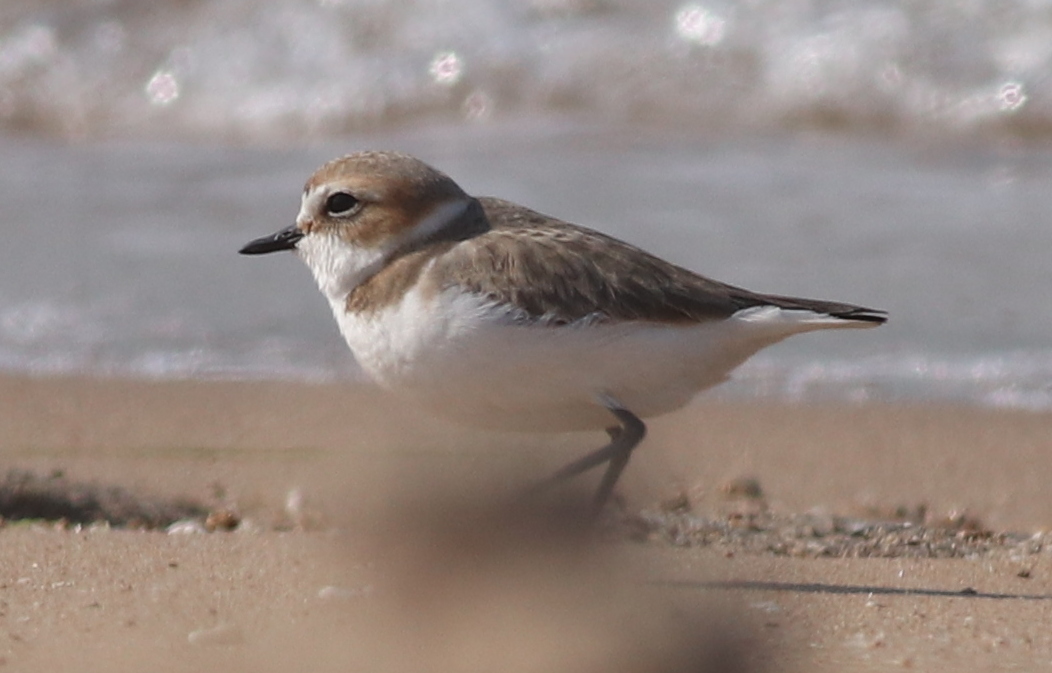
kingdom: Animalia
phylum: Chordata
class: Aves
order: Charadriiformes
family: Charadriidae
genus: Charadrius
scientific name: Charadrius alexandrinus
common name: Kentish plover
